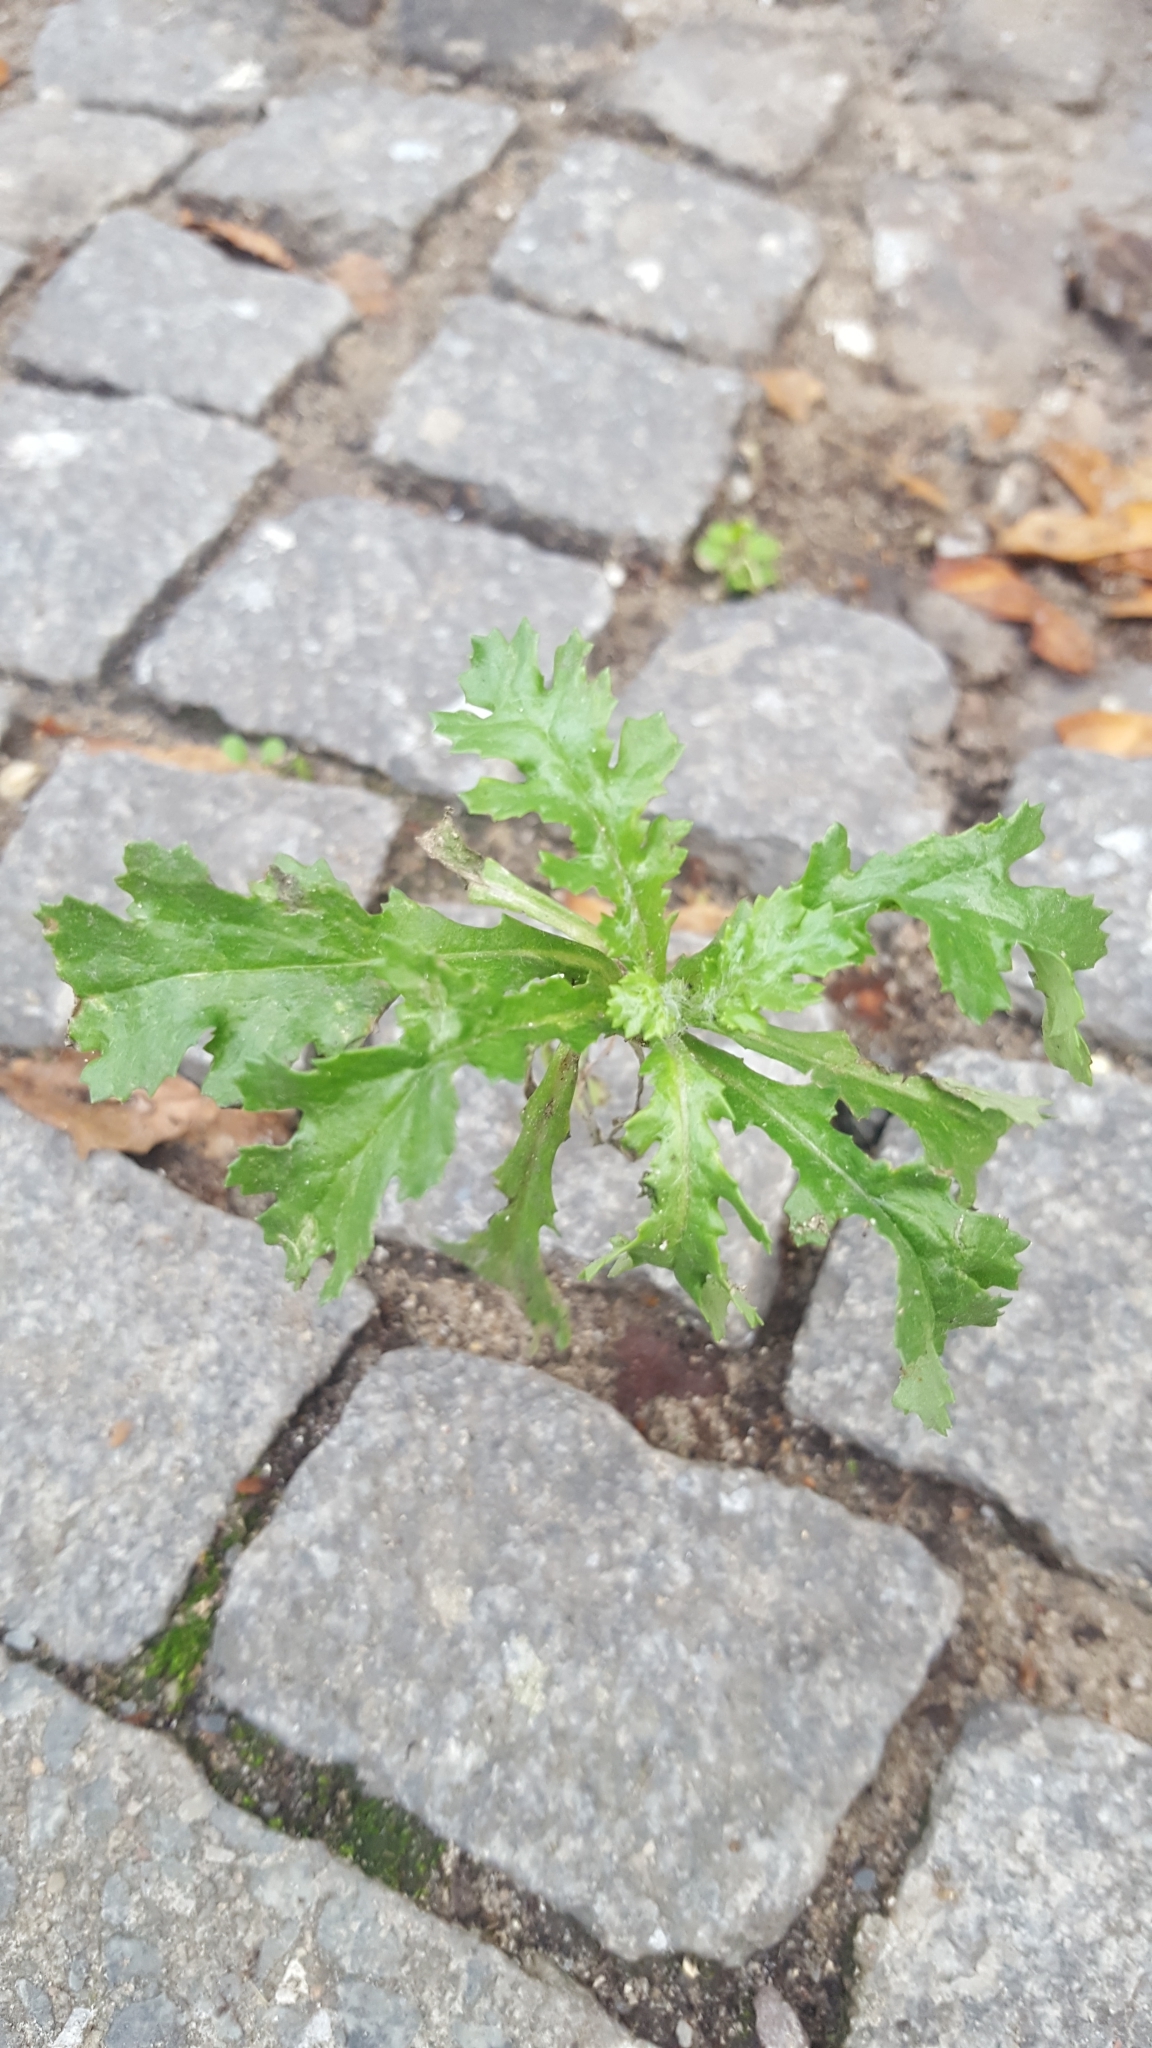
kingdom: Plantae
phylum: Tracheophyta
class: Magnoliopsida
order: Asterales
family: Asteraceae
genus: Senecio
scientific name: Senecio vulgaris
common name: Old-man-in-the-spring
